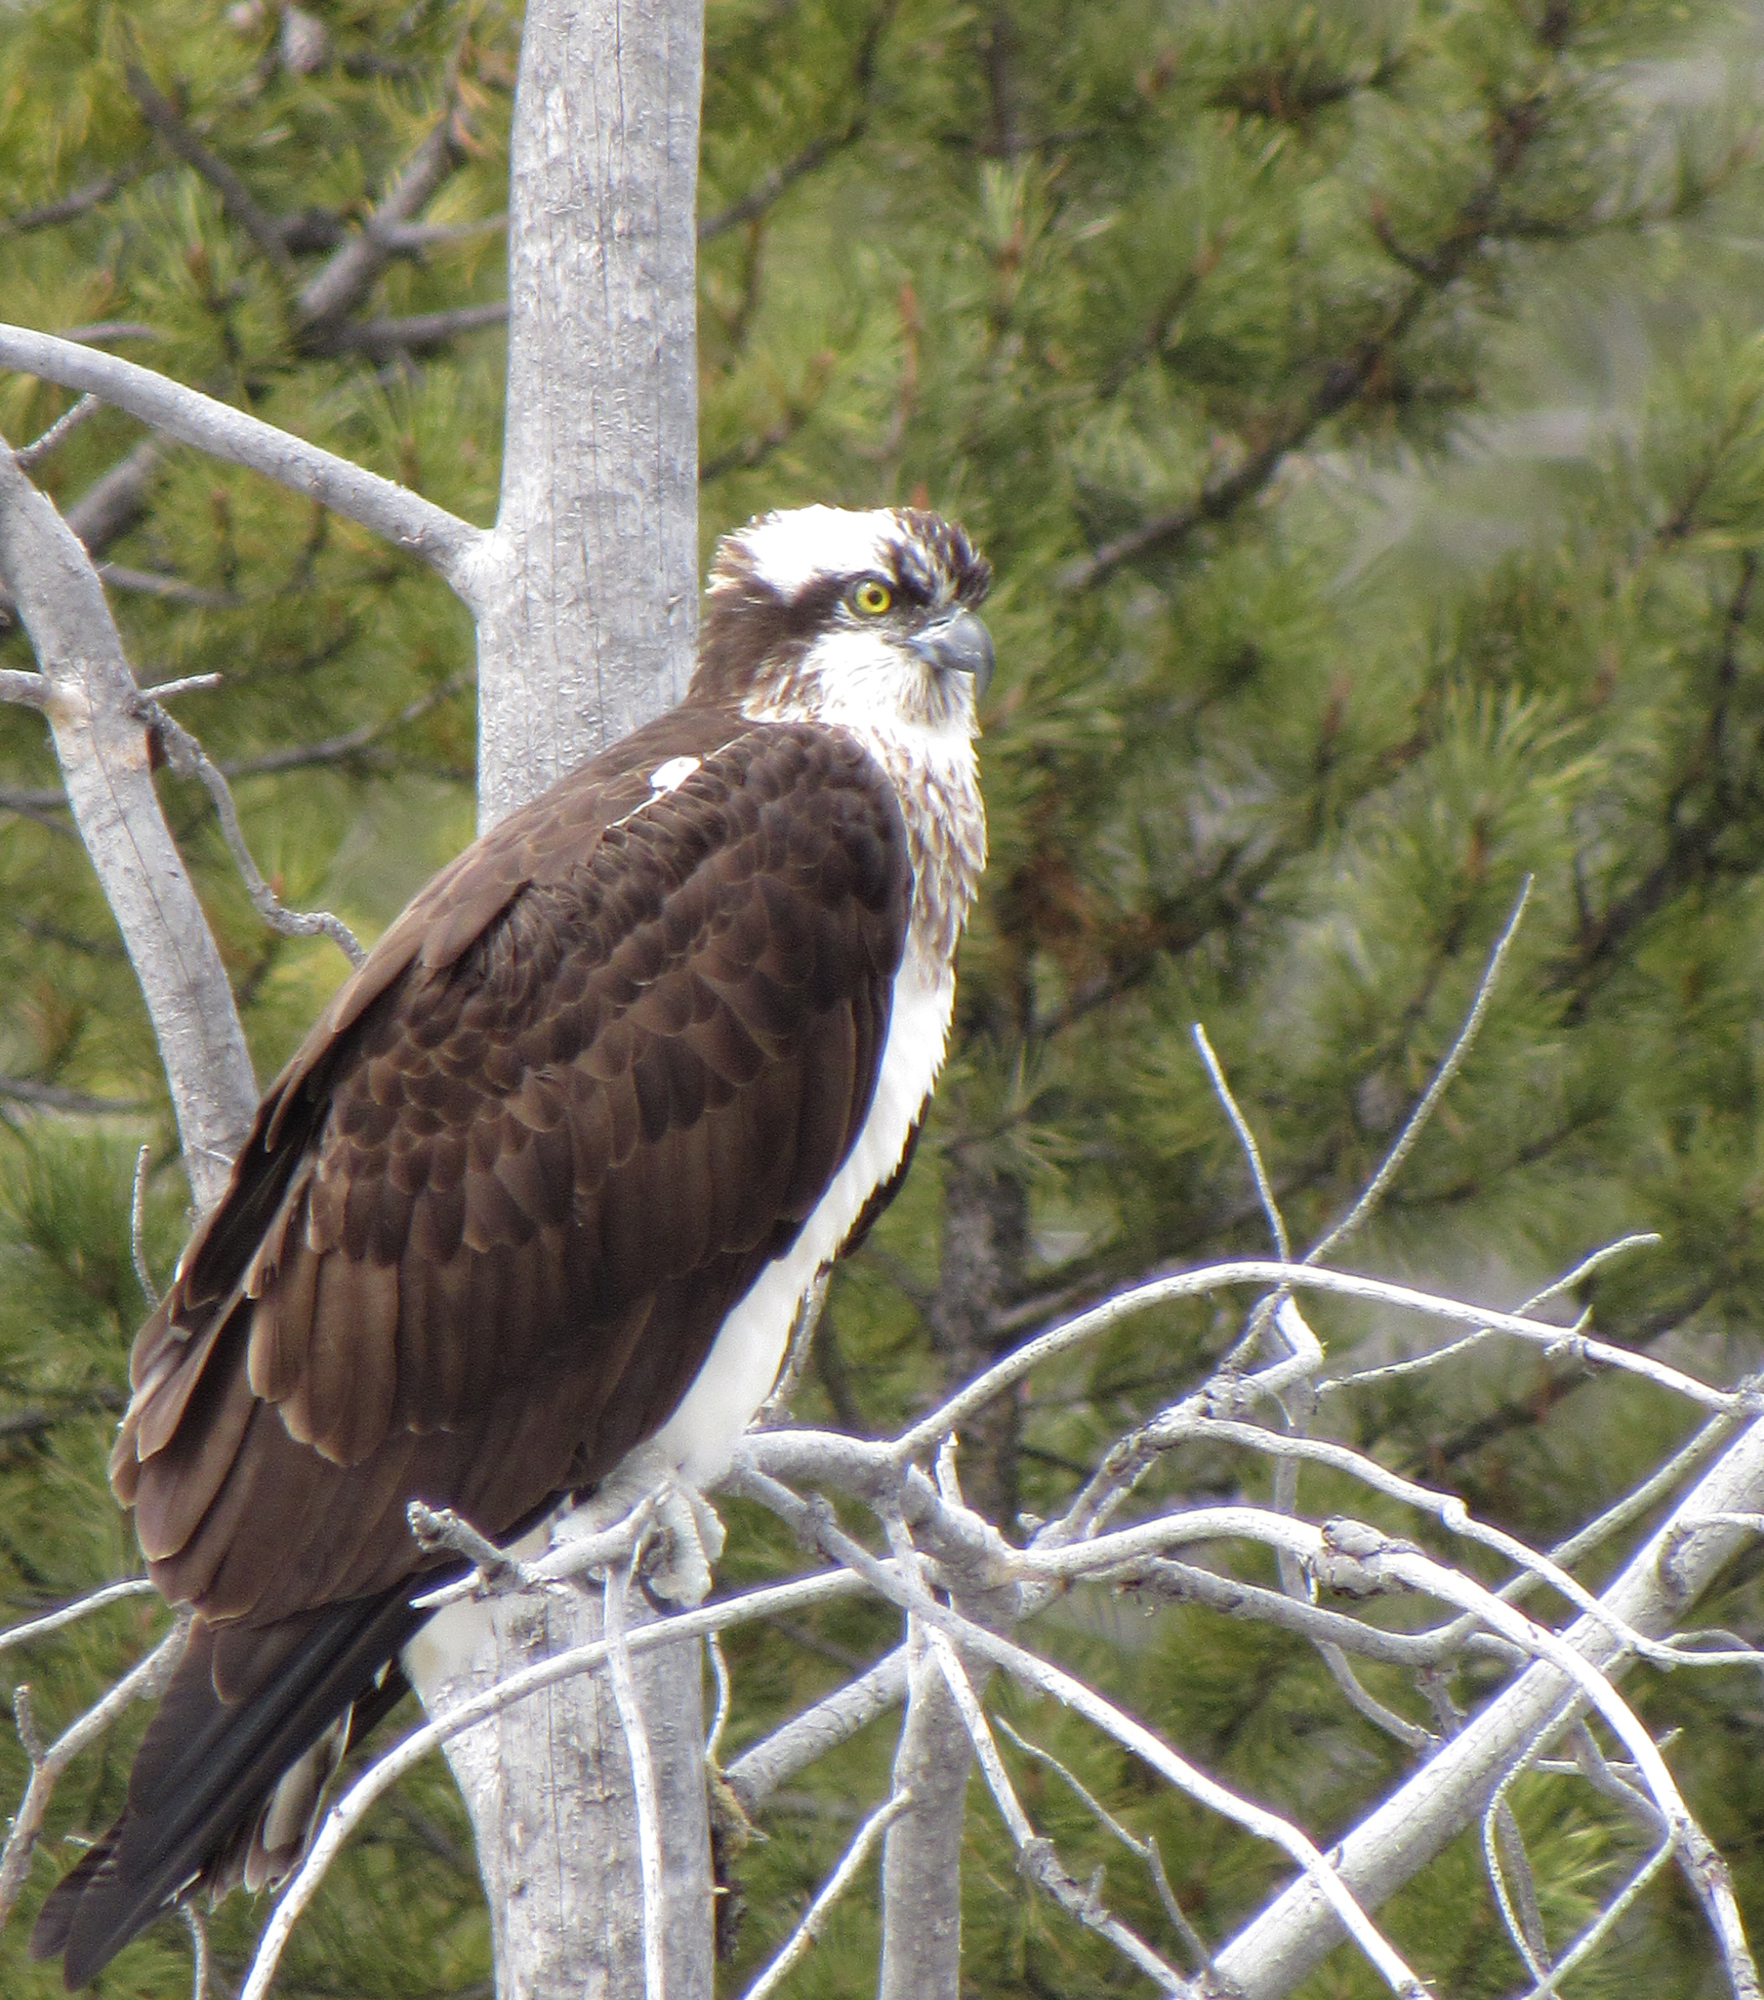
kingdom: Animalia
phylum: Chordata
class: Aves
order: Accipitriformes
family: Pandionidae
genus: Pandion
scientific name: Pandion haliaetus
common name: Osprey
